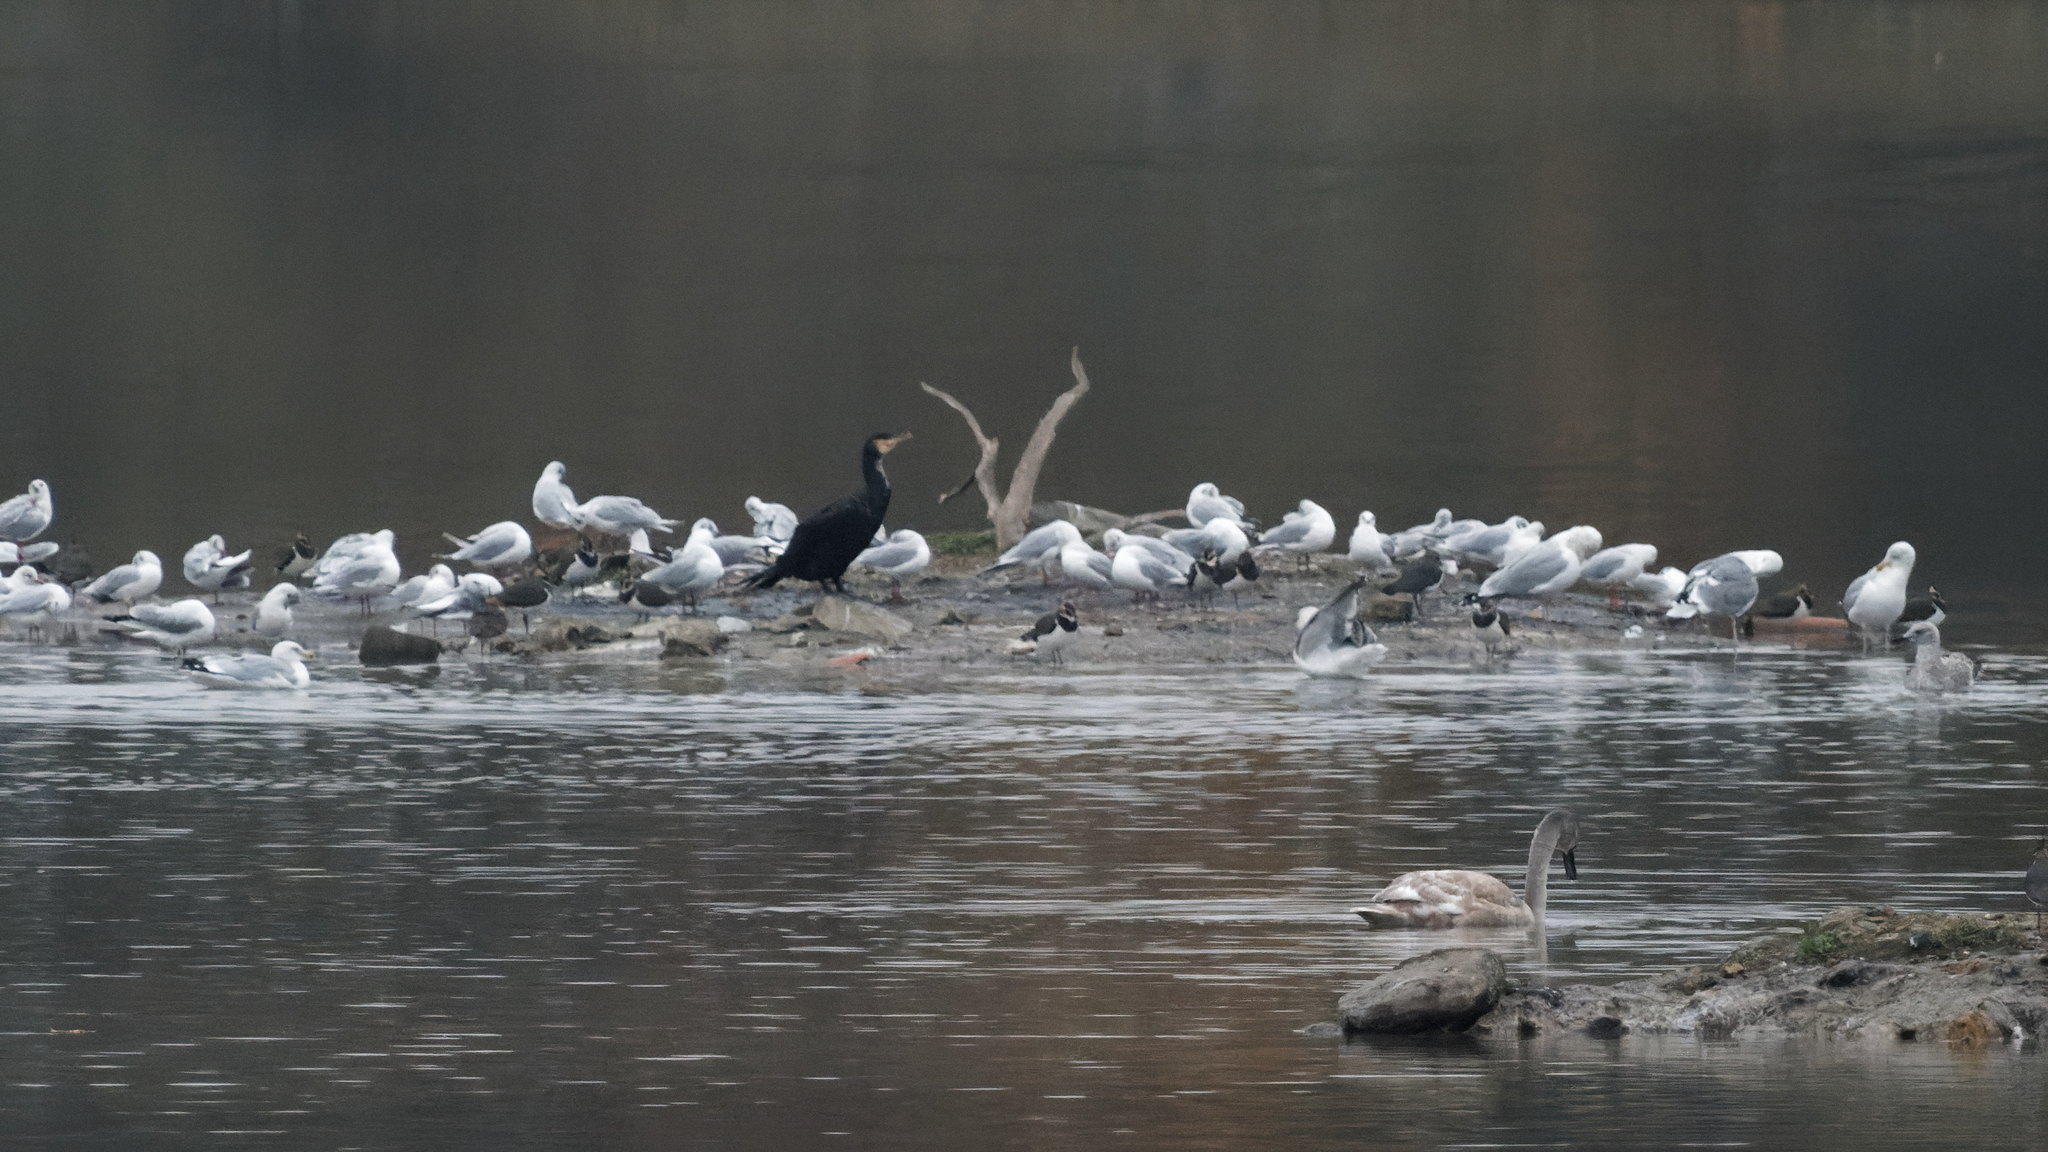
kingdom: Animalia
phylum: Chordata
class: Aves
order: Suliformes
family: Phalacrocoracidae
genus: Phalacrocorax
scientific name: Phalacrocorax carbo
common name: Great cormorant
